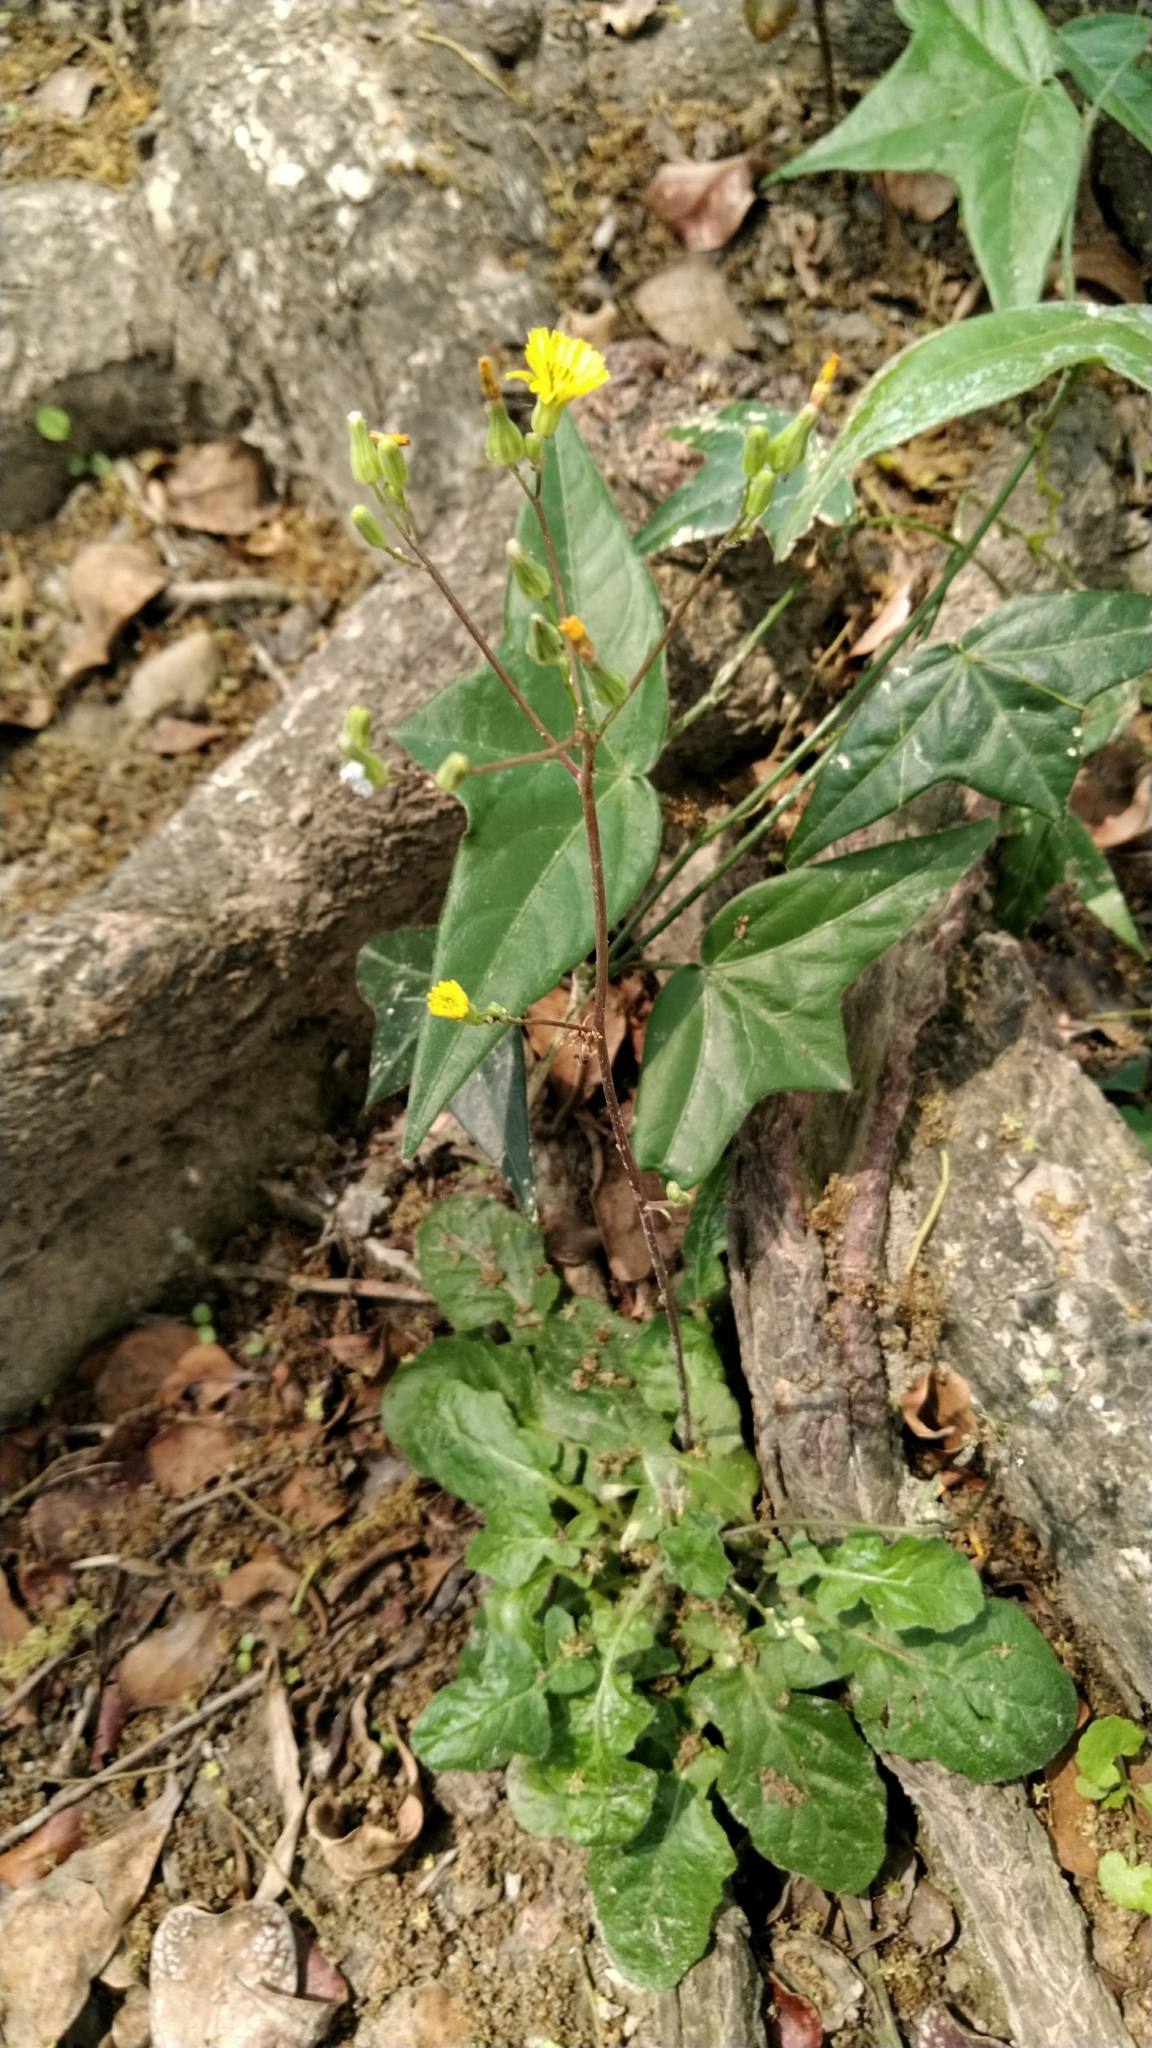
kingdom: Plantae
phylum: Tracheophyta
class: Magnoliopsida
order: Asterales
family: Asteraceae
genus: Youngia
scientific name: Youngia japonica
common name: Oriental false hawksbeard
